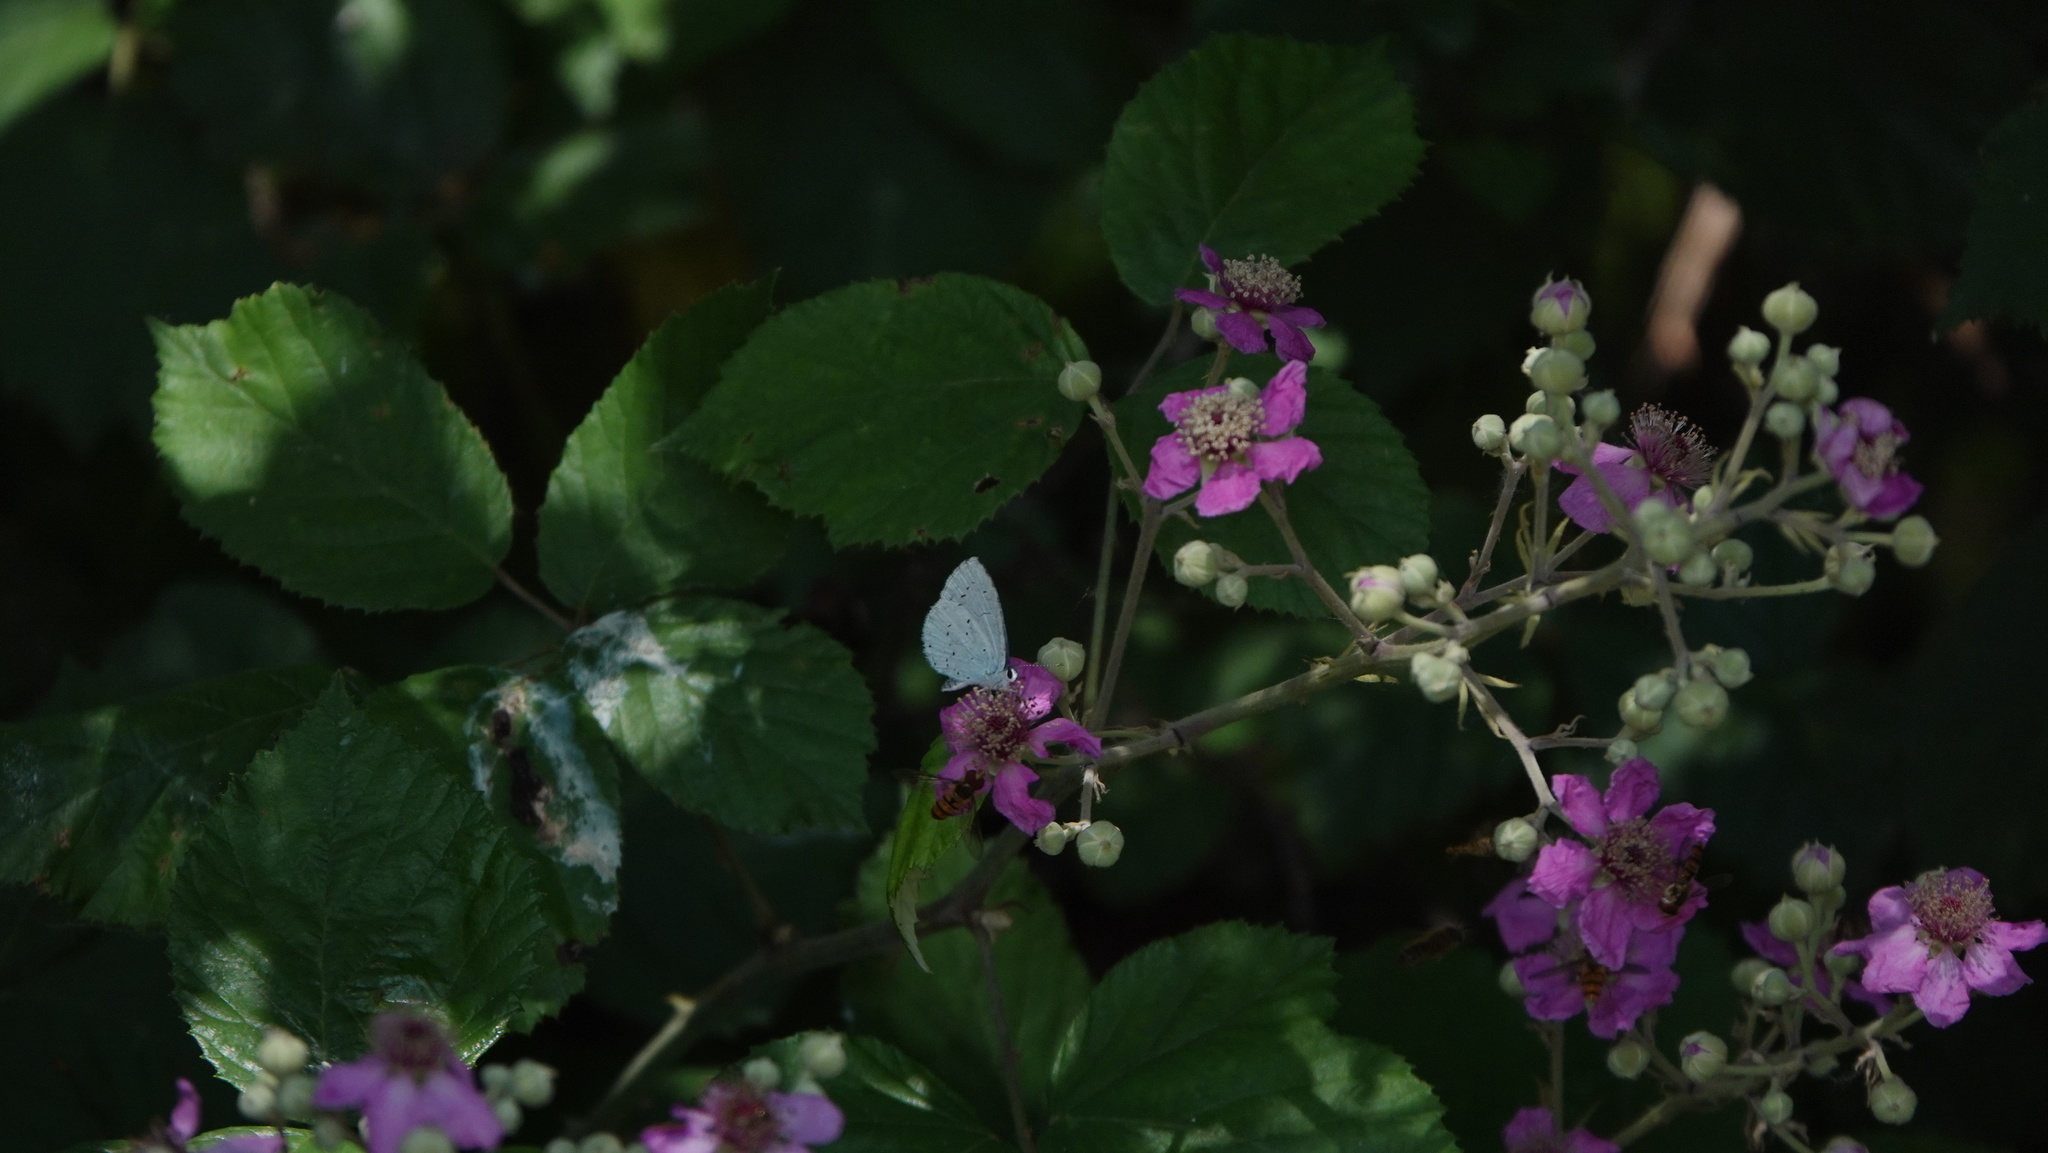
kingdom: Animalia
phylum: Arthropoda
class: Insecta
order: Lepidoptera
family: Lycaenidae
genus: Celastrina
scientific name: Celastrina argiolus
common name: Holly blue
